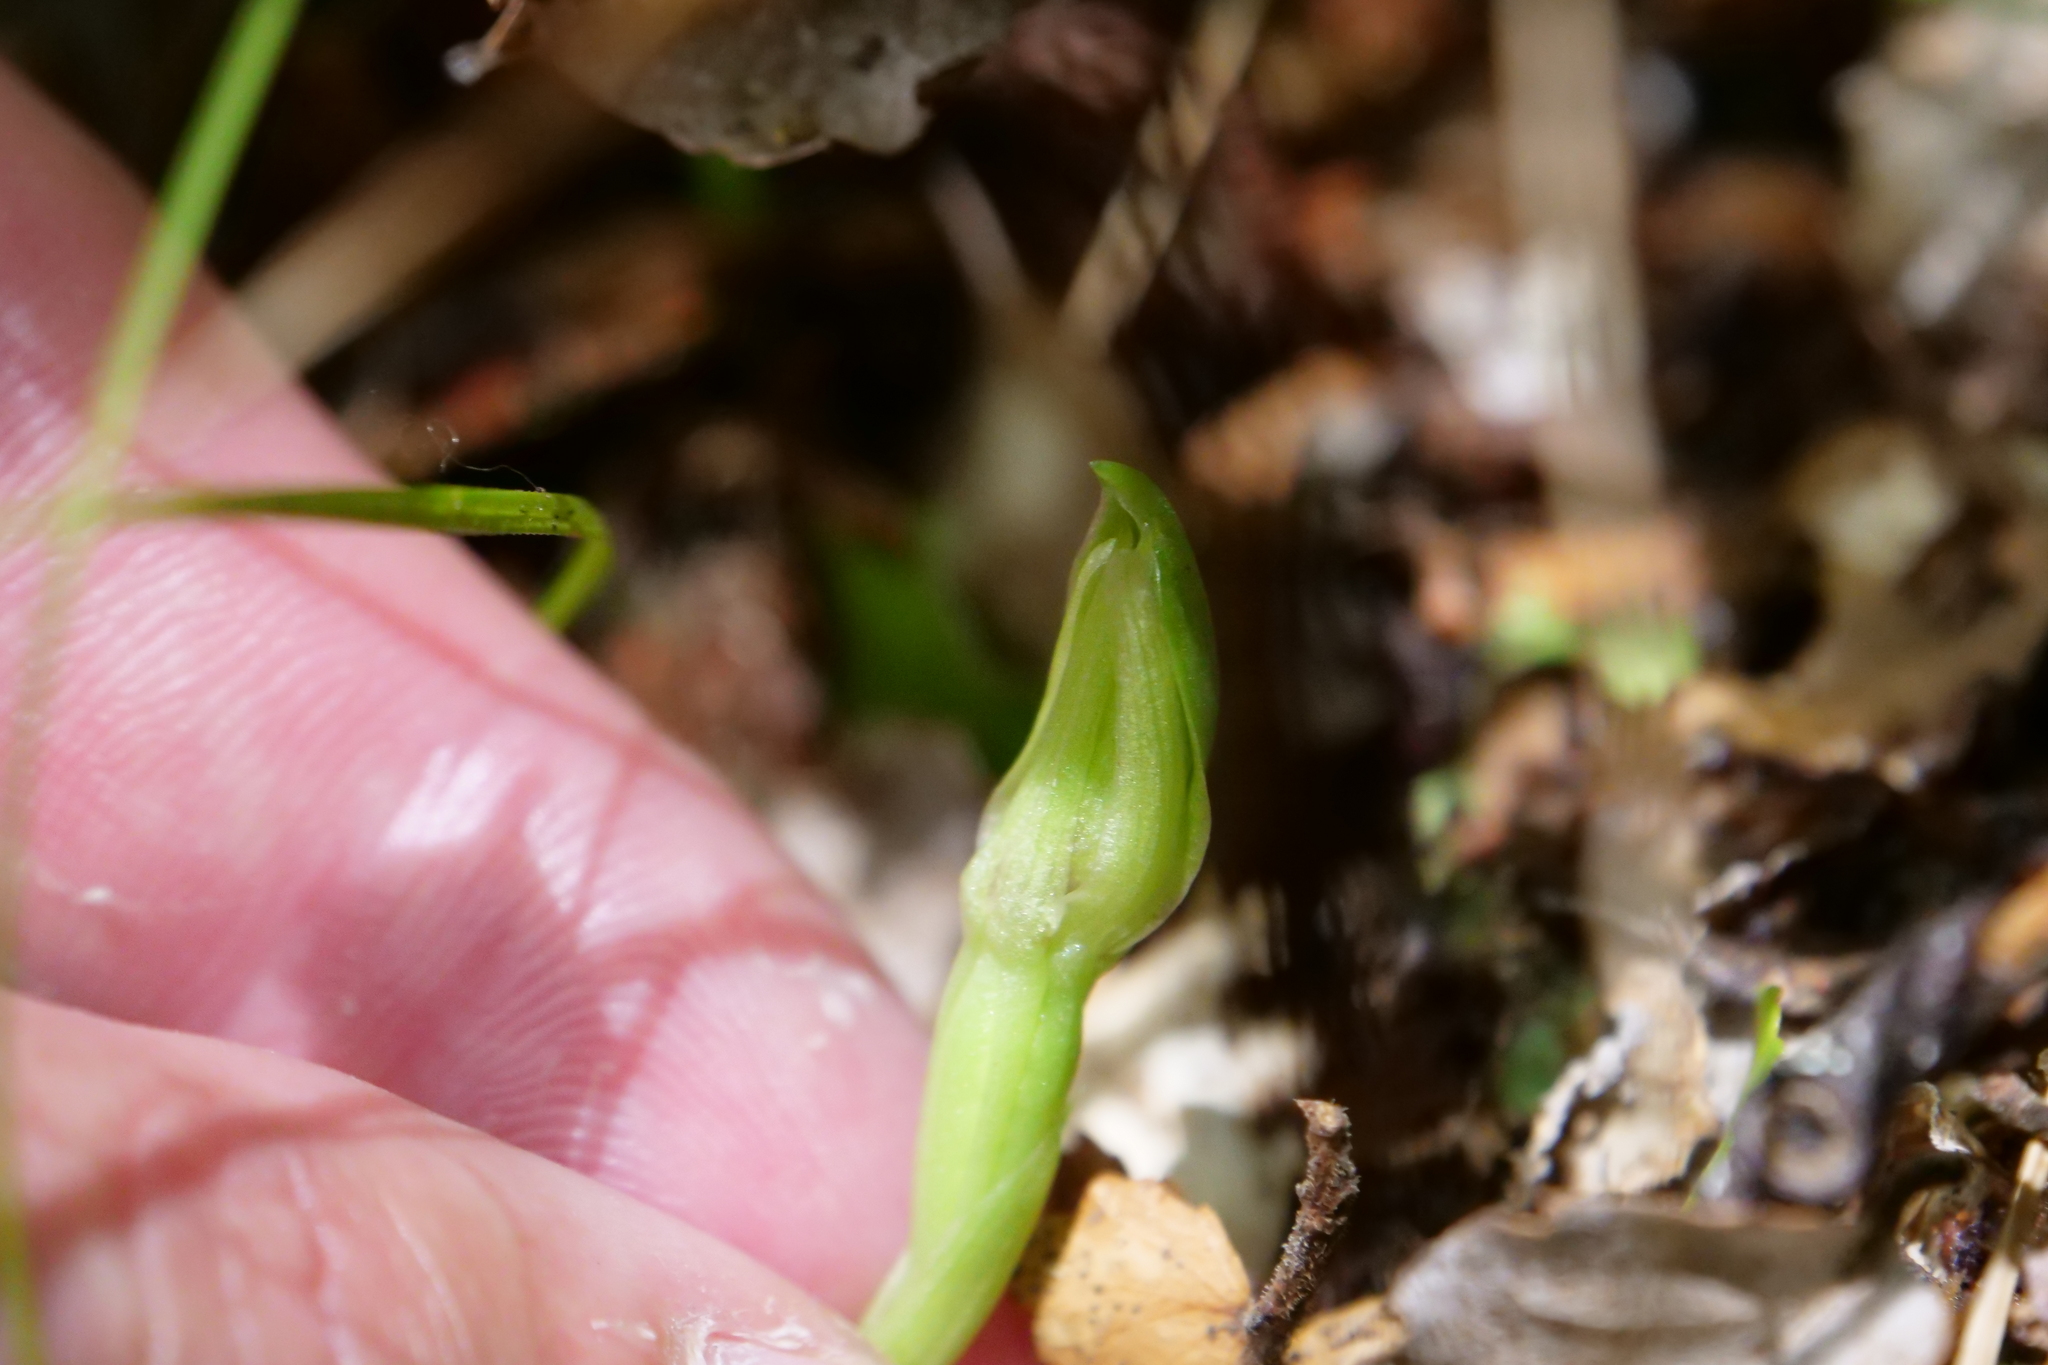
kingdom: Plantae
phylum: Tracheophyta
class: Liliopsida
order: Asparagales
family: Orchidaceae
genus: Chiloglottis
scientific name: Chiloglottis cornuta
